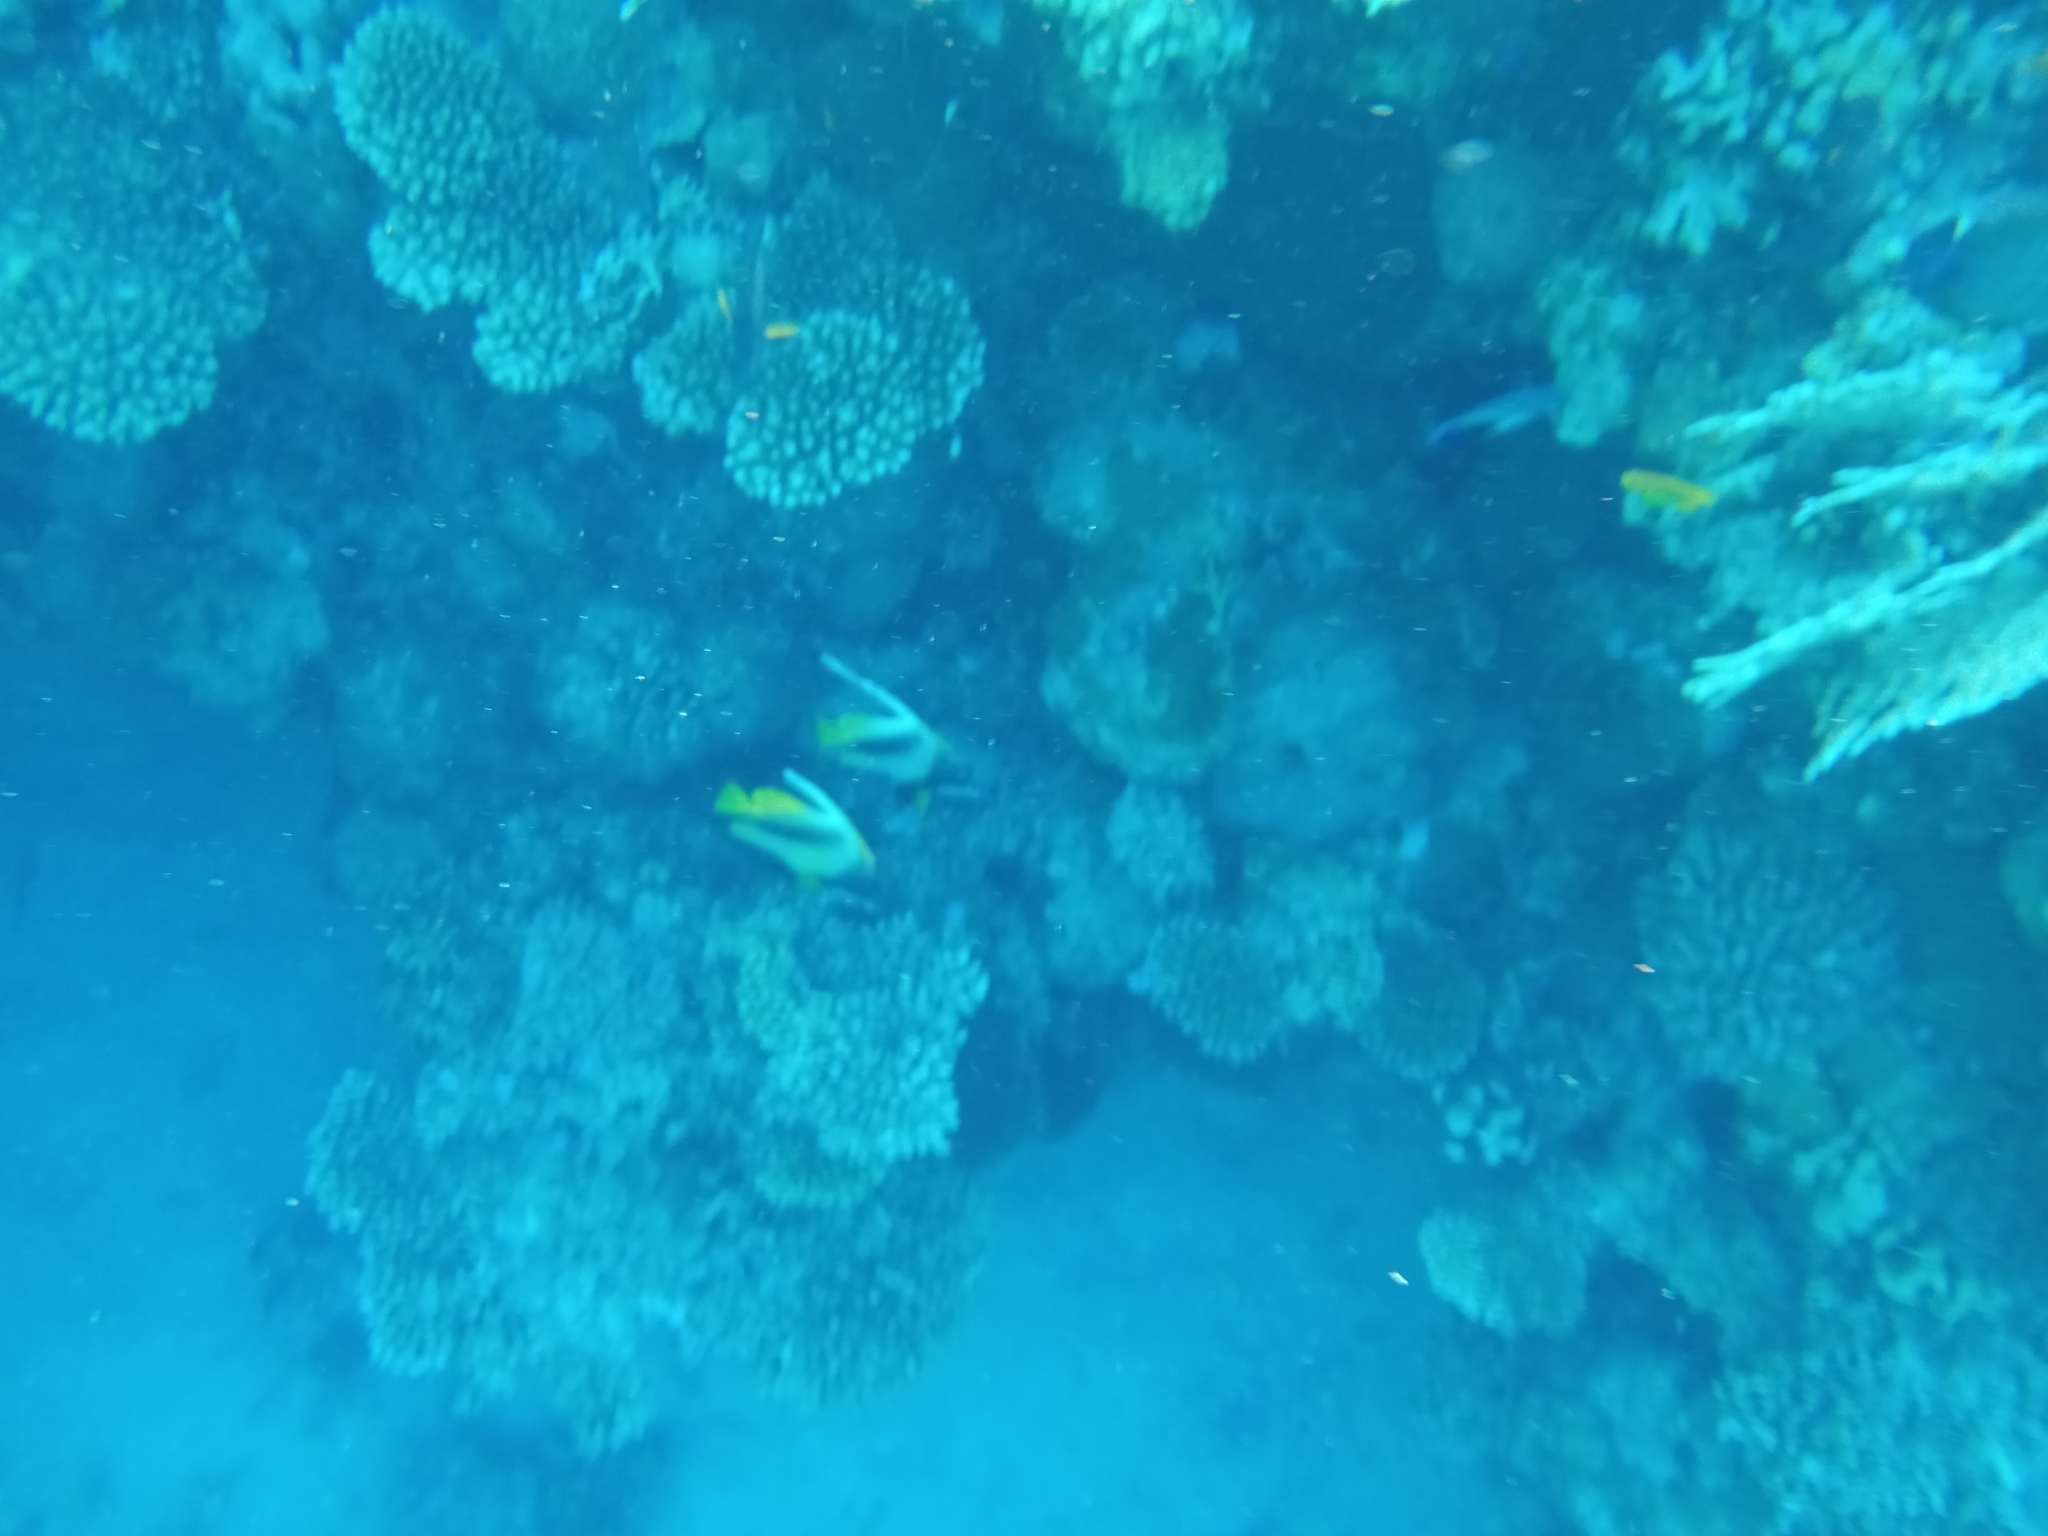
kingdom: Animalia
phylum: Chordata
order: Perciformes
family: Chaetodontidae
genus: Heniochus
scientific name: Heniochus intermedius
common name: Red sea bannerfish
